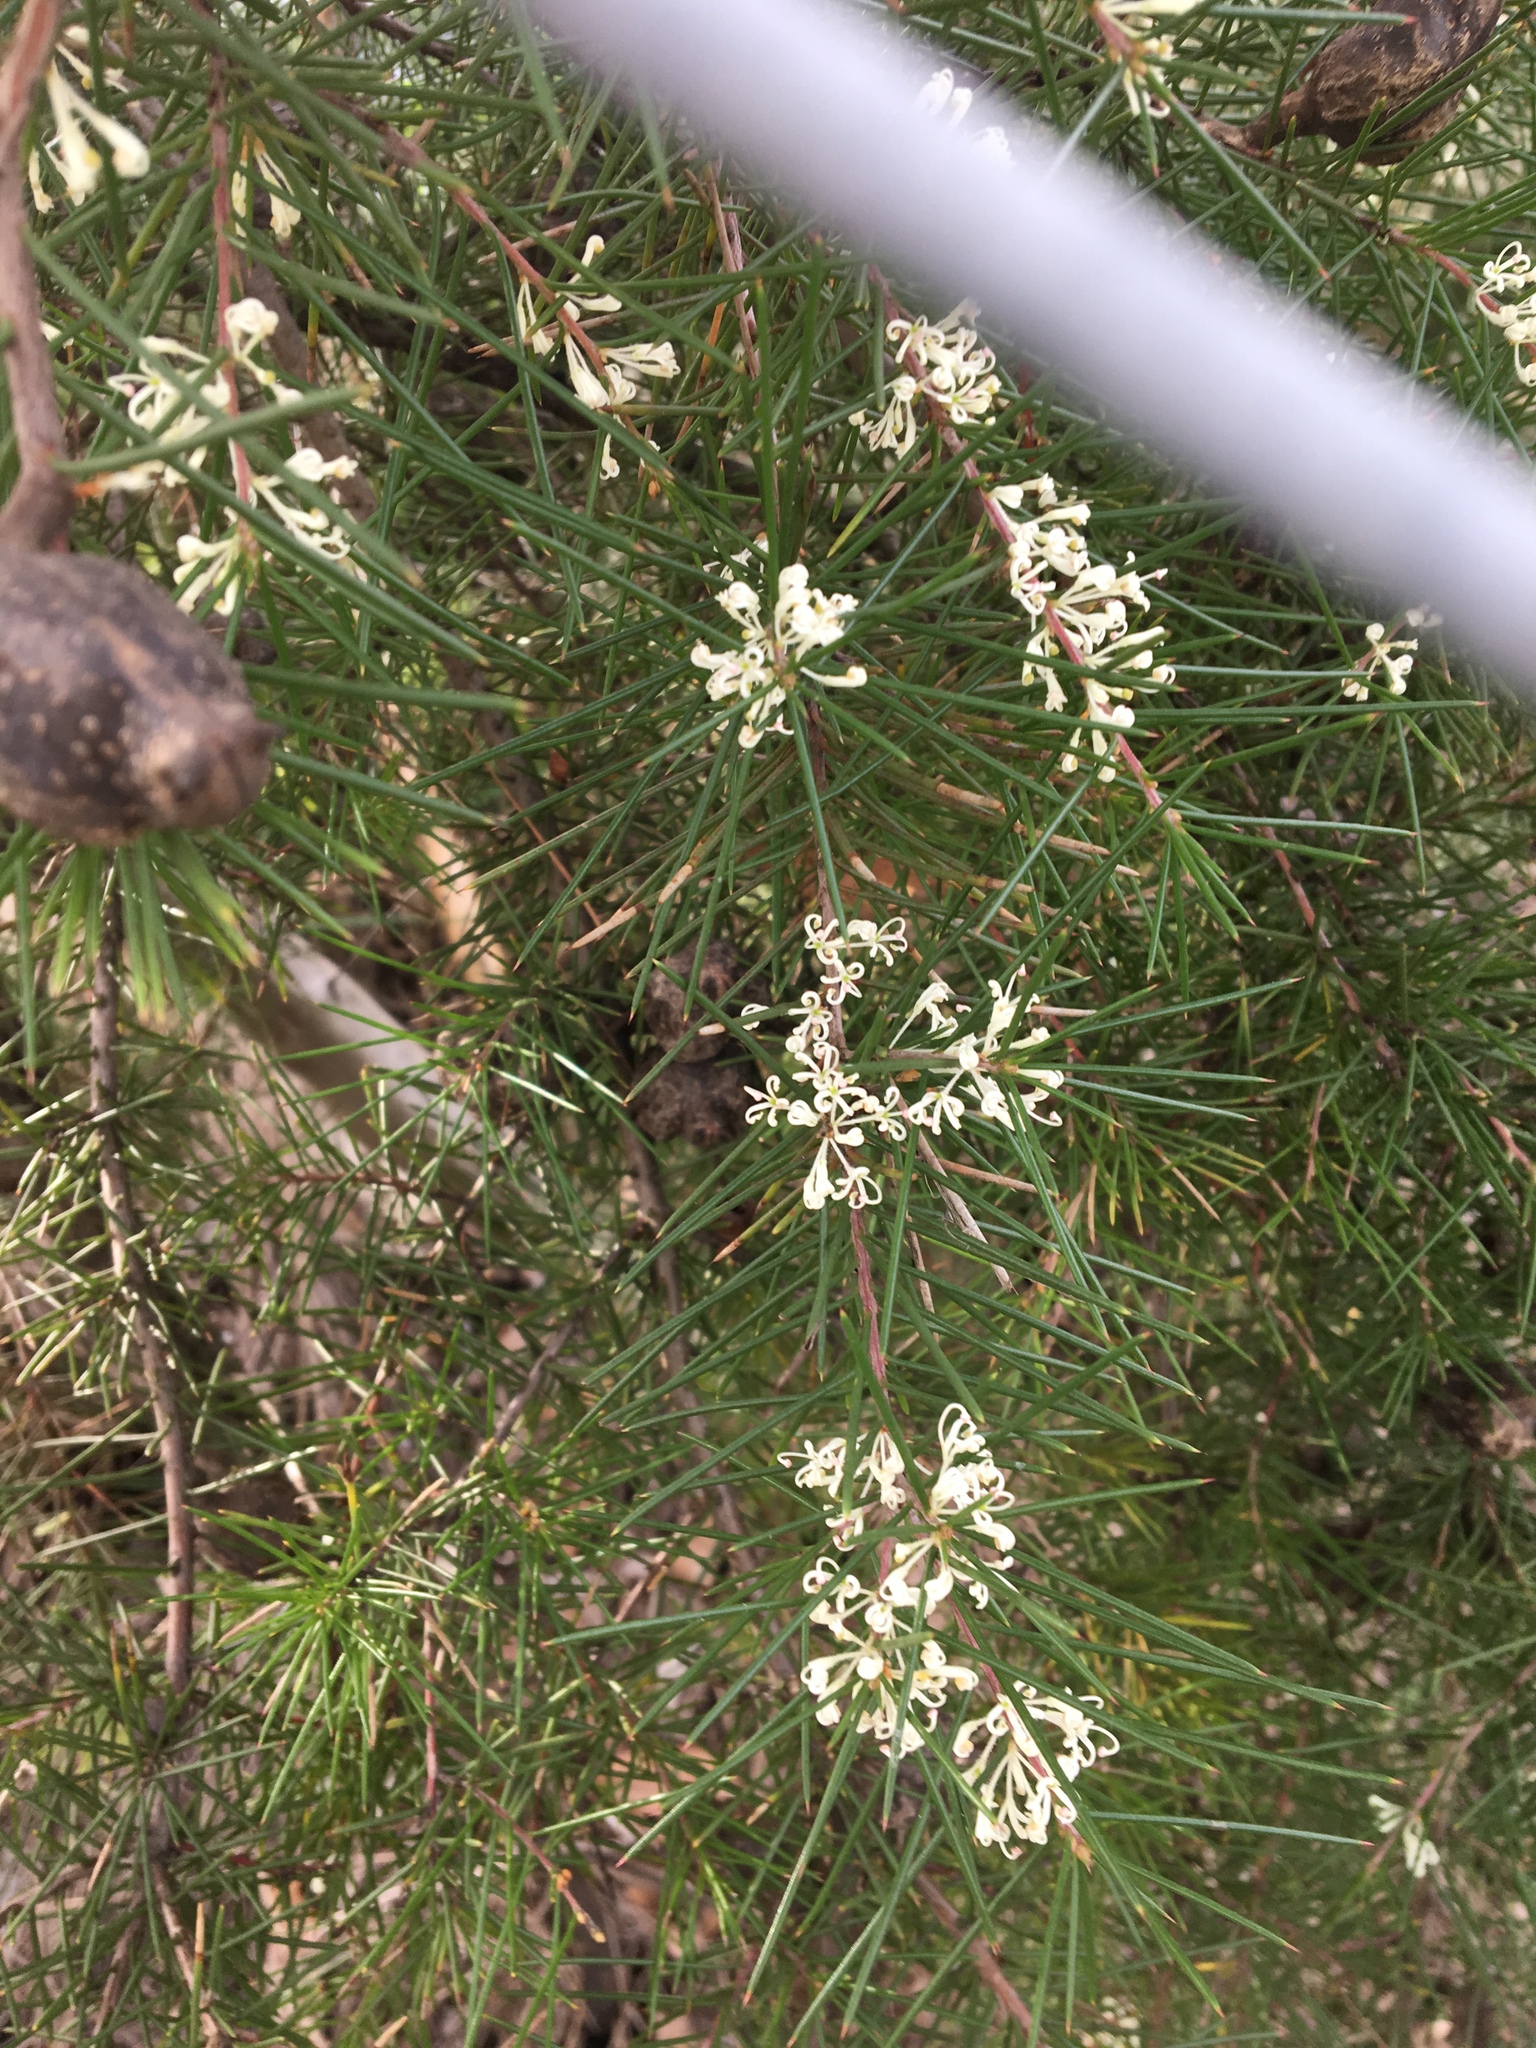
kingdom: Plantae
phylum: Tracheophyta
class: Magnoliopsida
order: Proteales
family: Proteaceae
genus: Hakea
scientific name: Hakea sericea
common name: Needle bush
